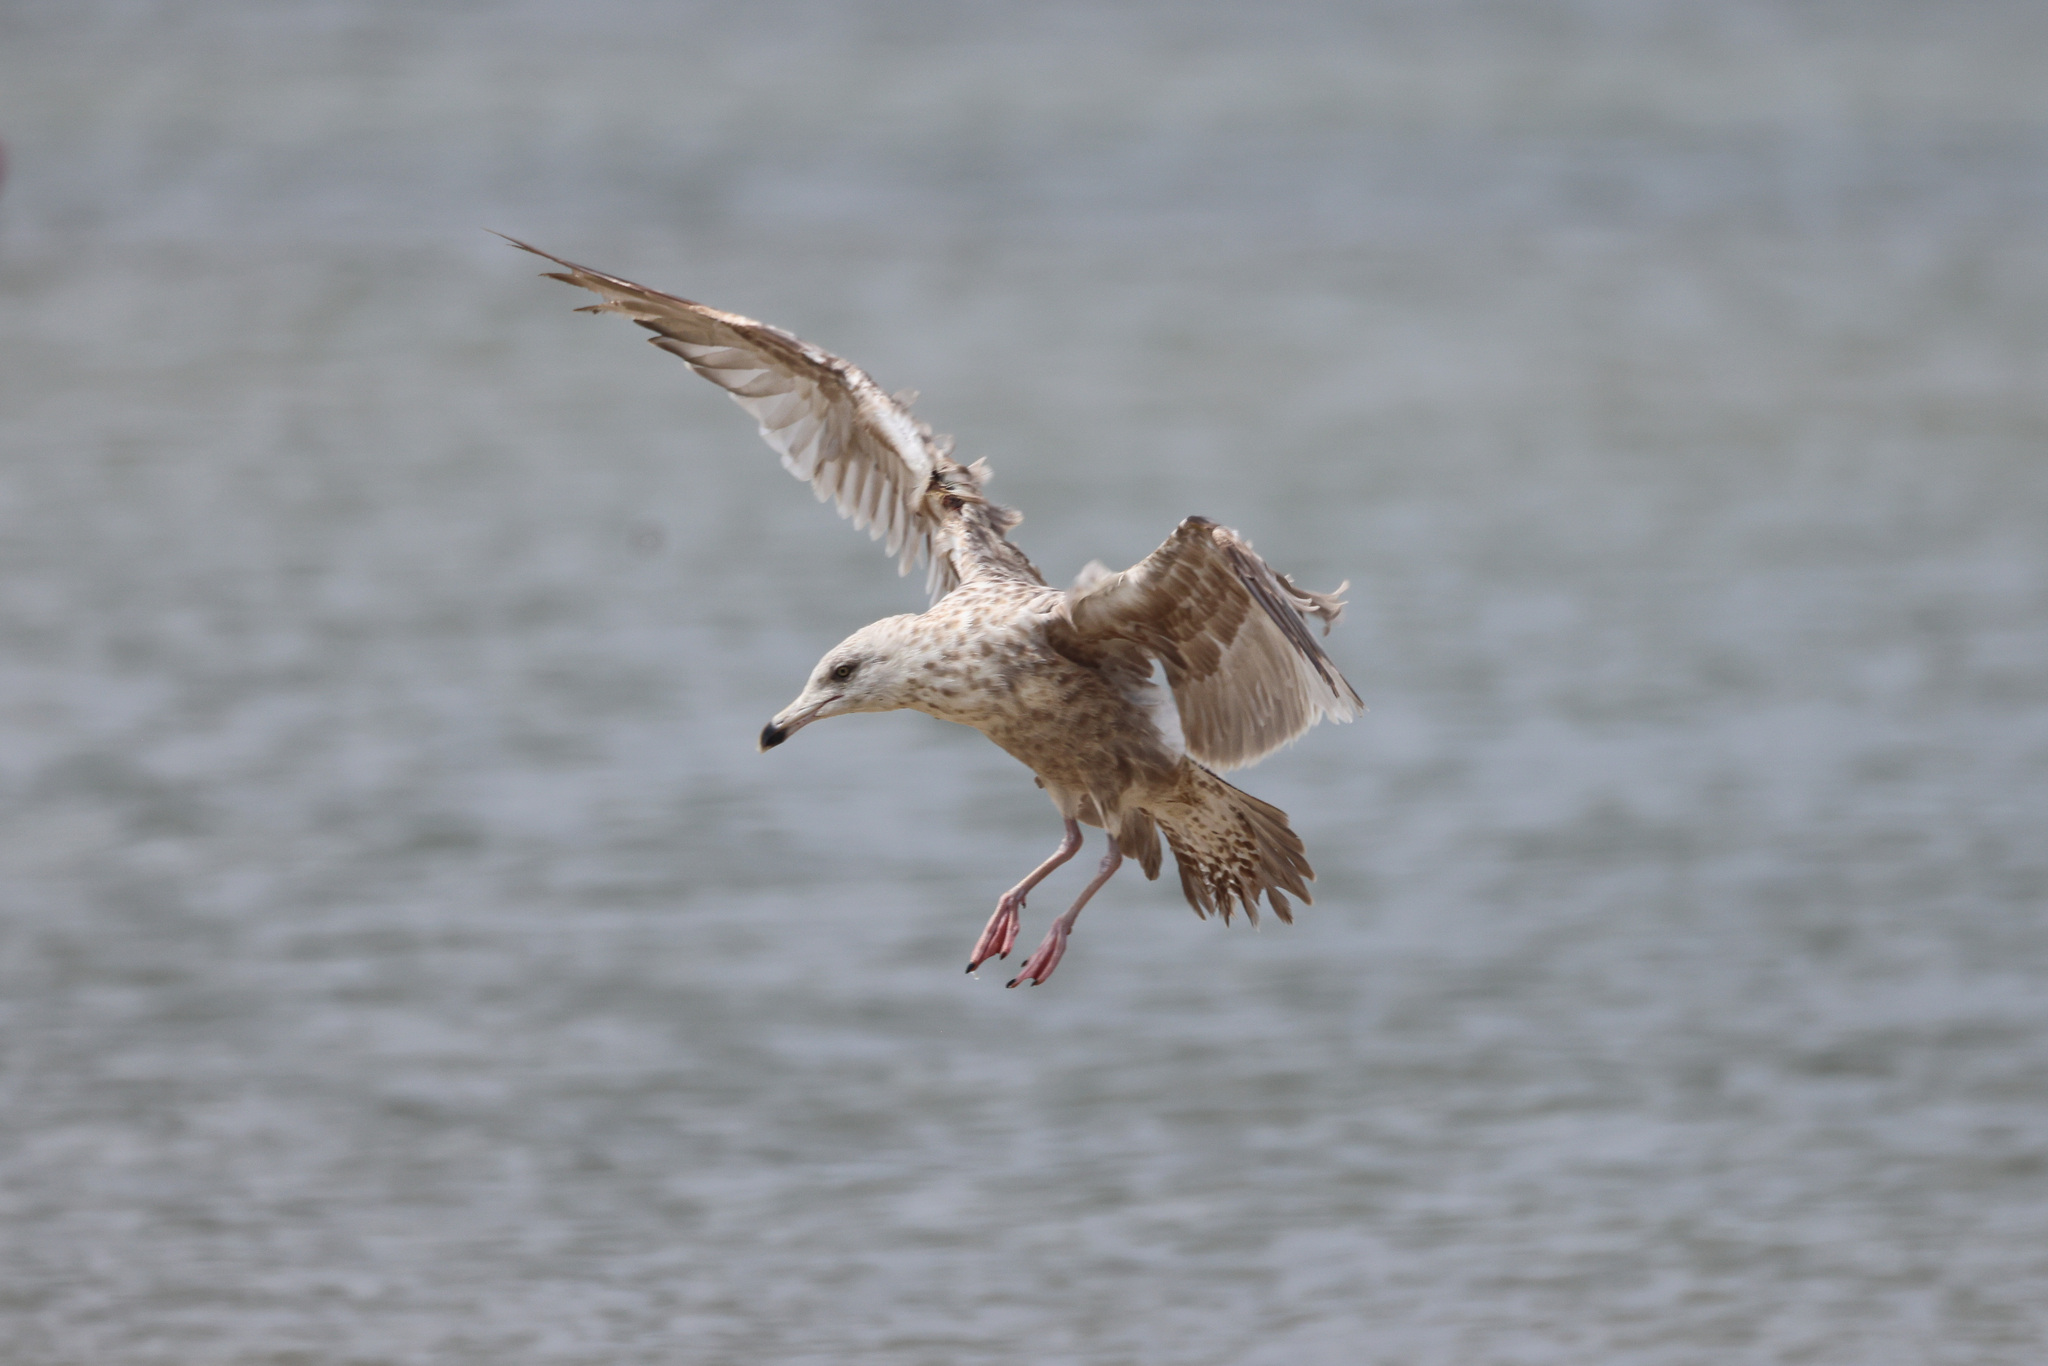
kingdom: Animalia
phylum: Chordata
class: Aves
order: Charadriiformes
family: Laridae
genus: Larus
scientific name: Larus smithsonianus
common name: American herring gull
